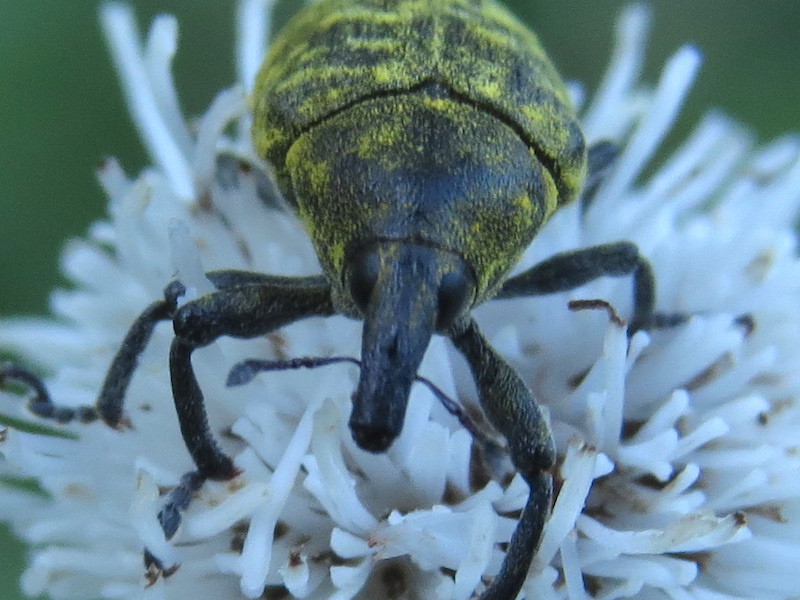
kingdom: Animalia
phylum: Arthropoda
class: Insecta
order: Coleoptera
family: Curculionidae
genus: Larinus
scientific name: Larinus turbinatus
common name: Weevil
